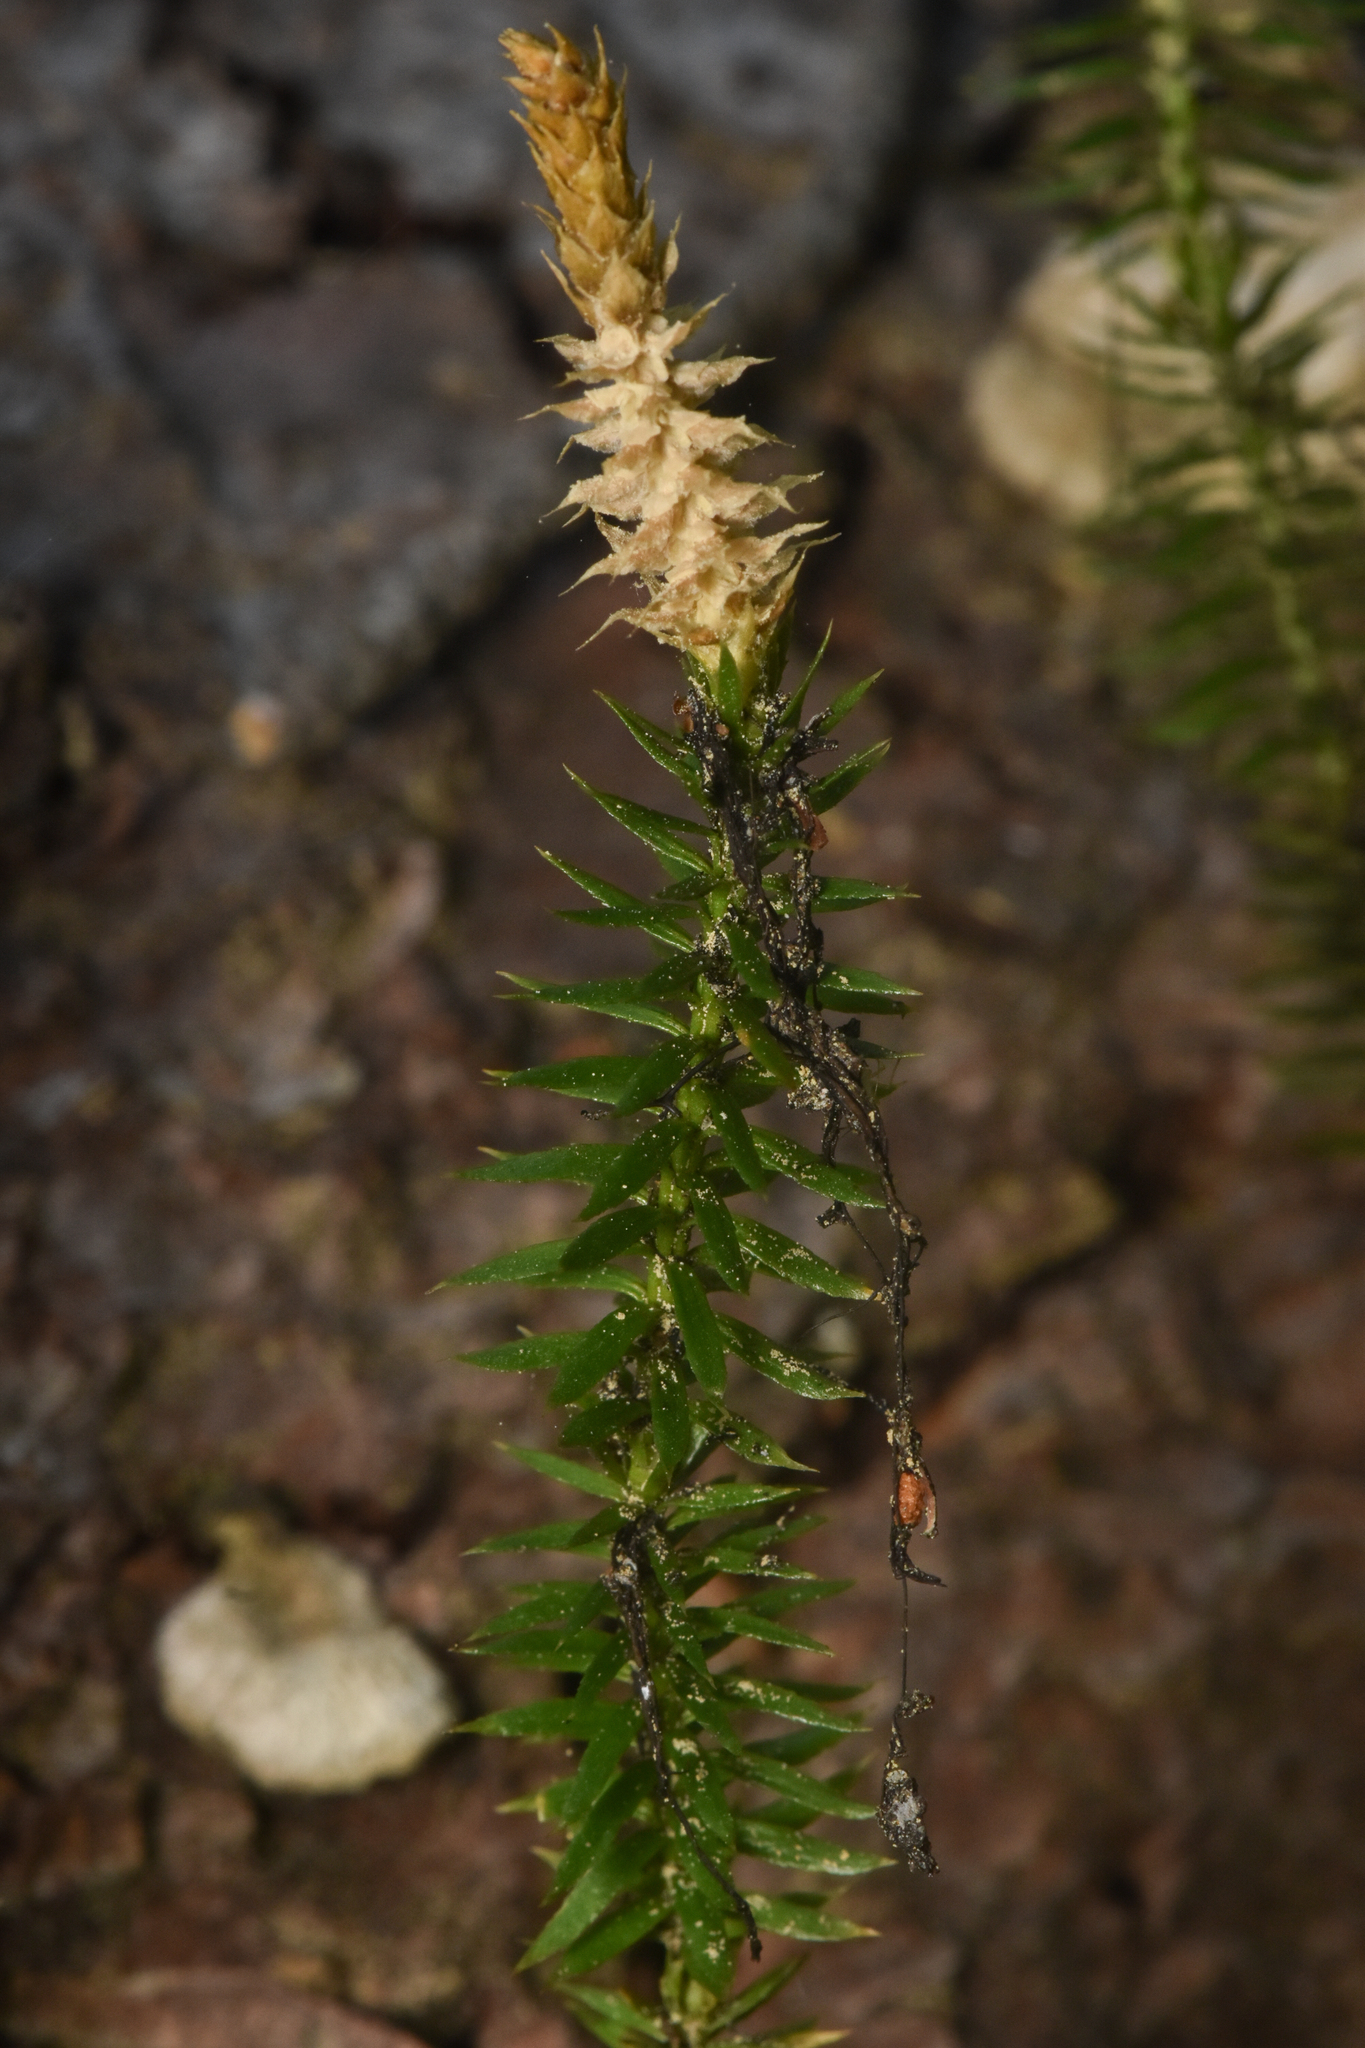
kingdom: Plantae
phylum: Tracheophyta
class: Lycopodiopsida
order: Lycopodiales
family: Lycopodiaceae
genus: Spinulum
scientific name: Spinulum annotinum
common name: Interrupted club-moss
